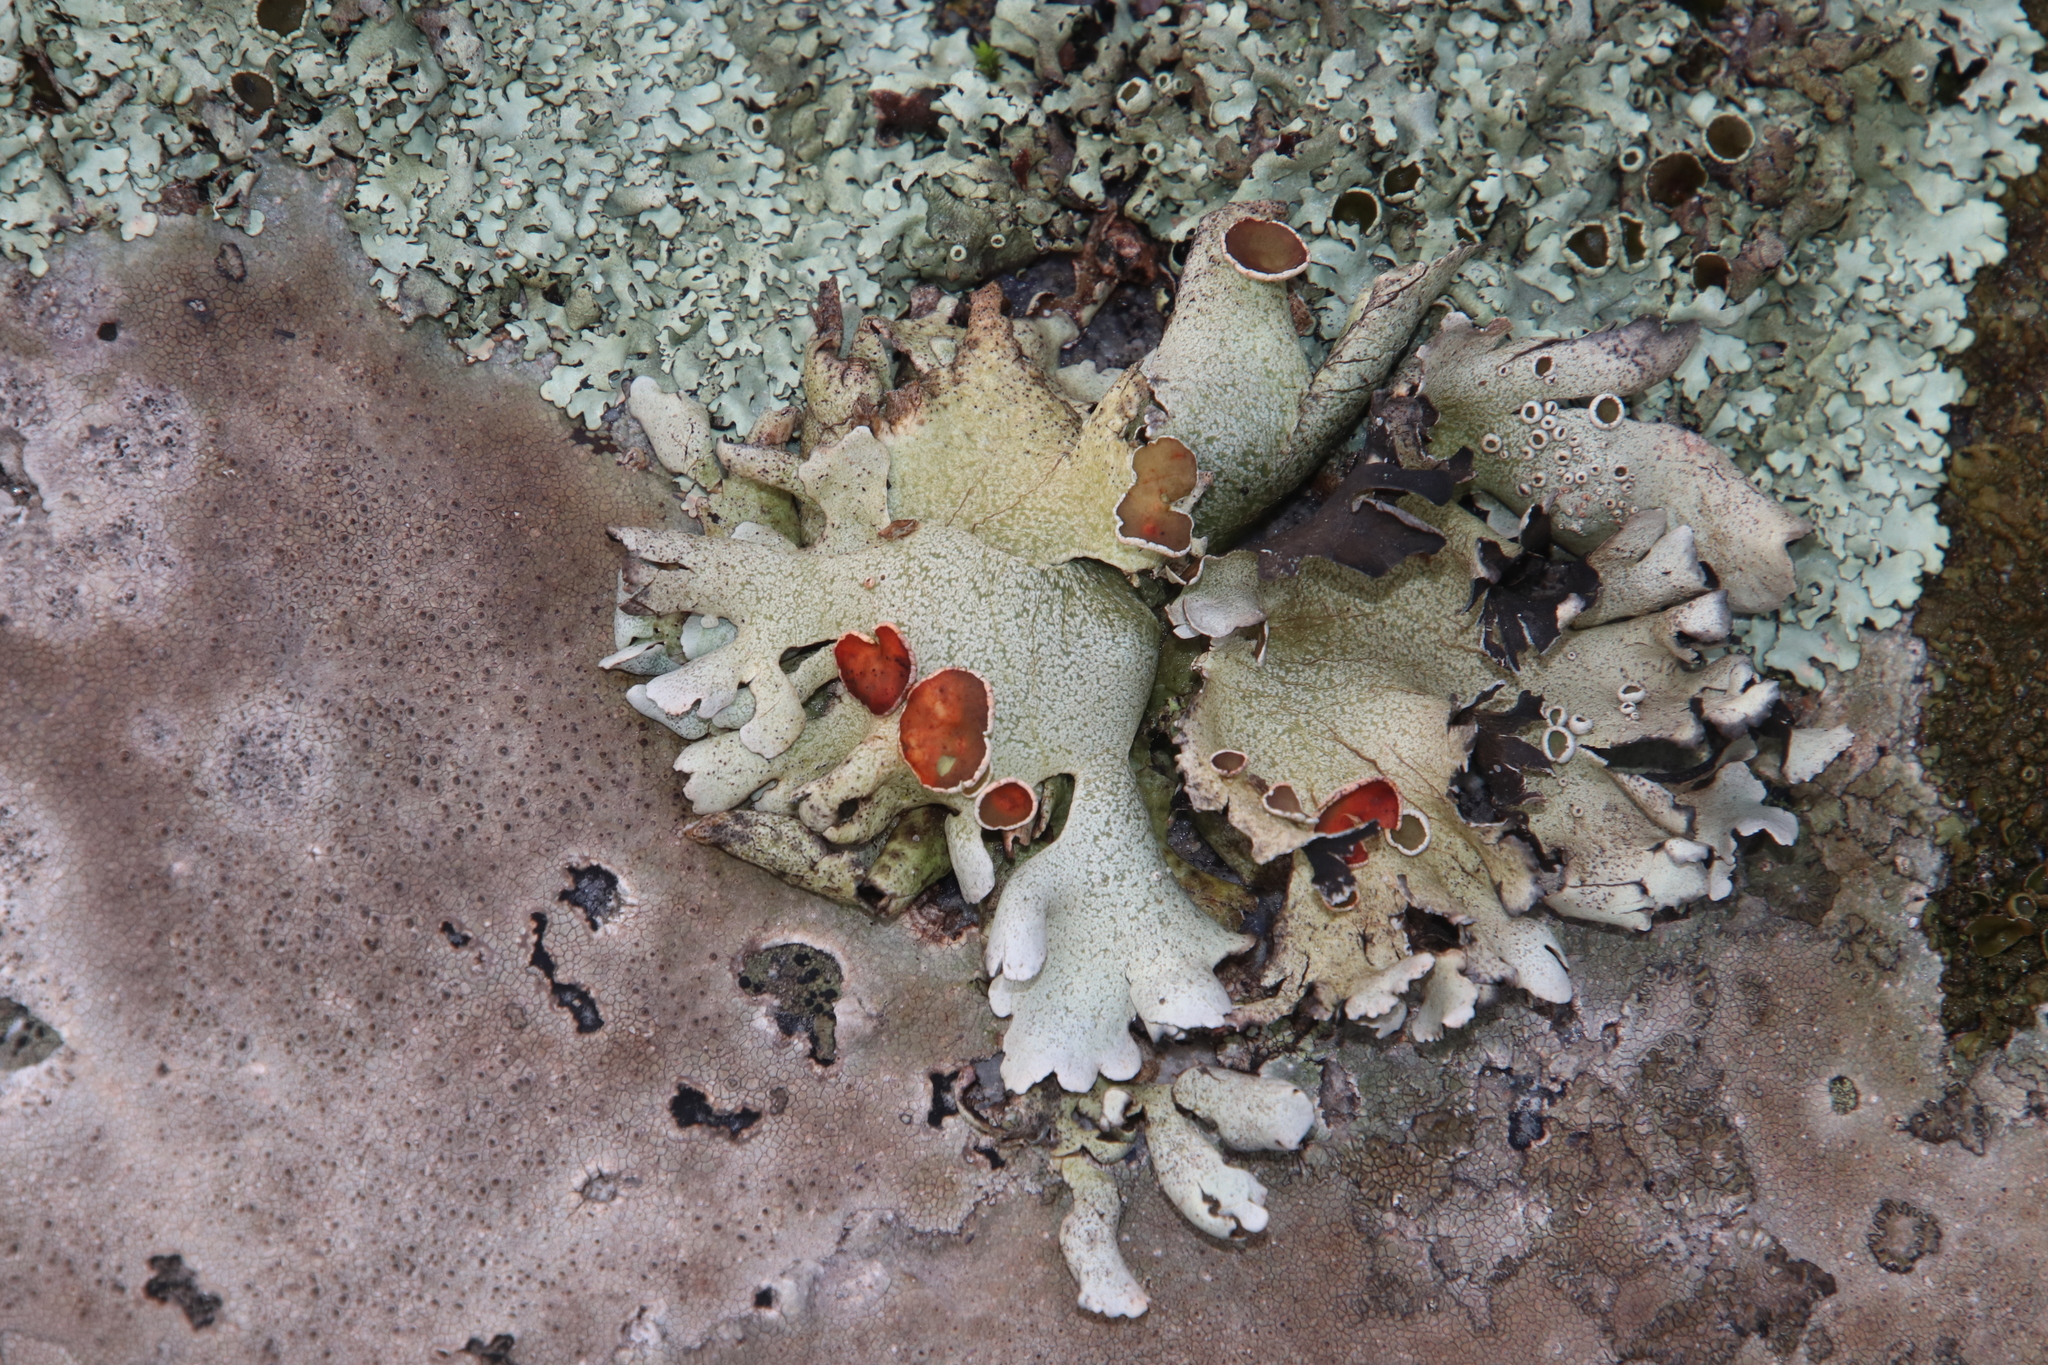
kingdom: Fungi
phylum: Ascomycota
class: Lecanoromycetes
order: Lecanorales
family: Parmeliaceae
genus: Xanthoparmelia
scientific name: Xanthoparmelia frondosa
